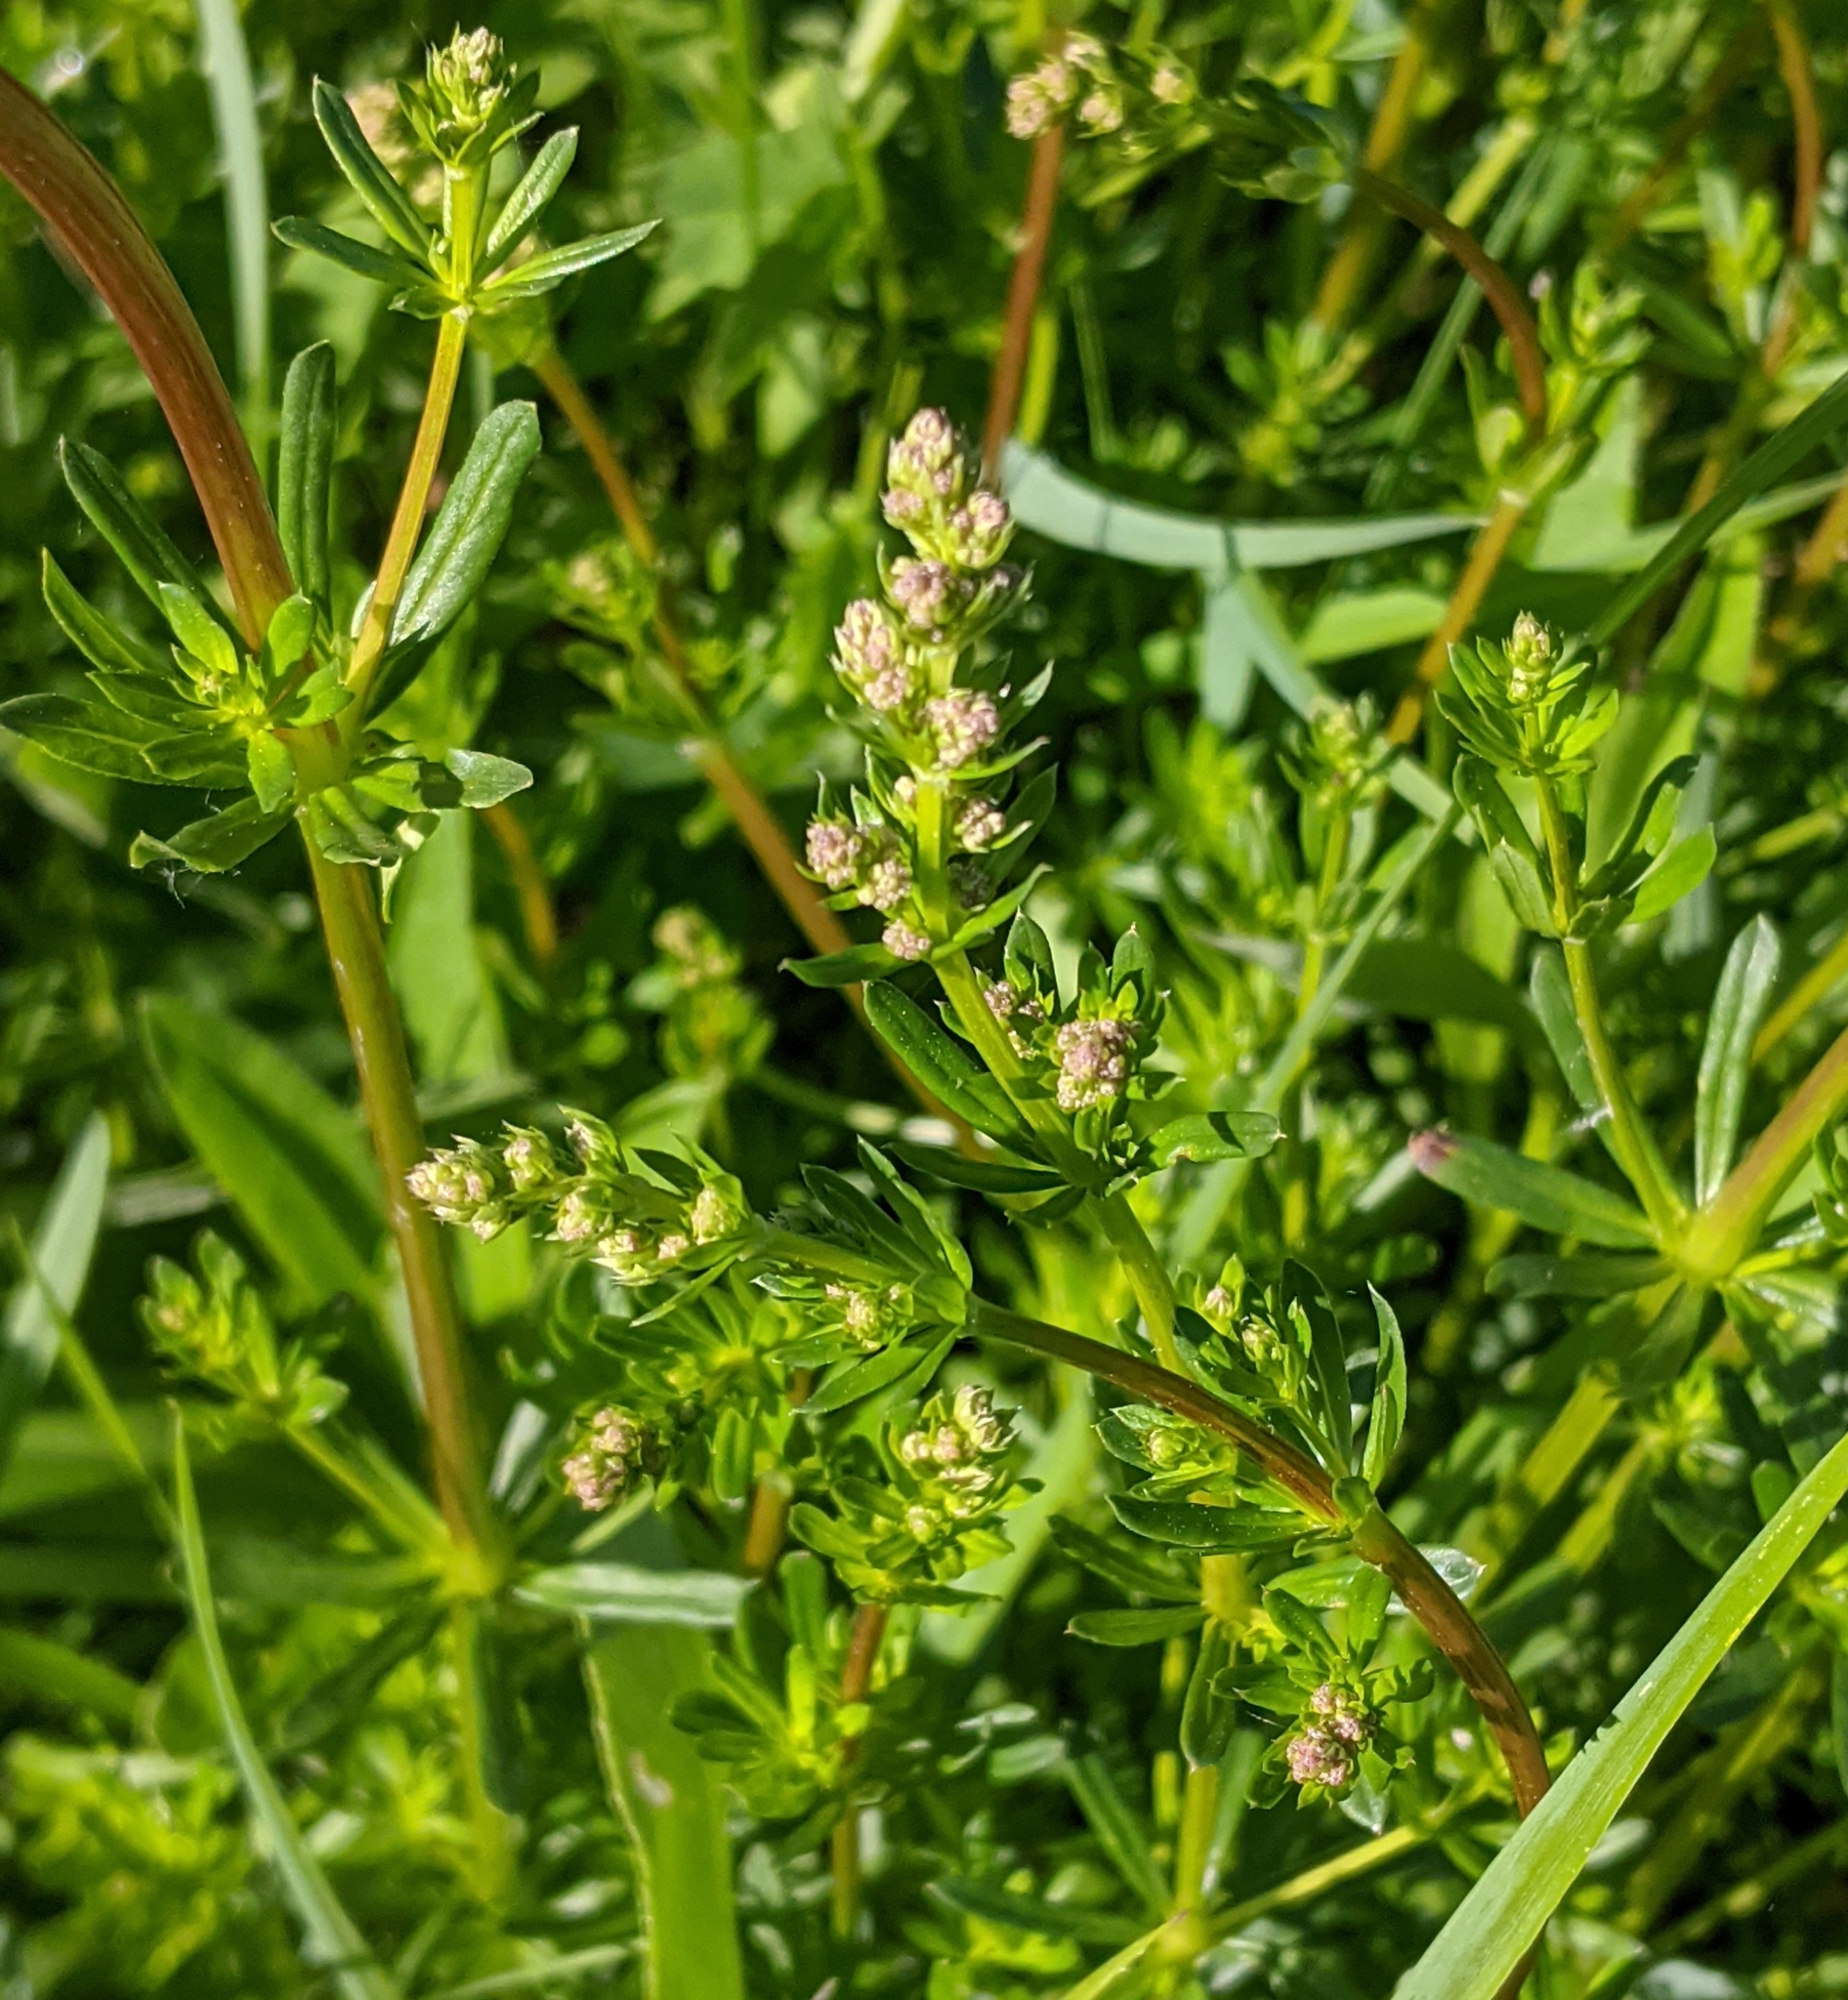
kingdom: Plantae
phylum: Tracheophyta
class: Magnoliopsida
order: Gentianales
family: Rubiaceae
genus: Galium
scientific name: Galium mollugo
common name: Hedge bedstraw
